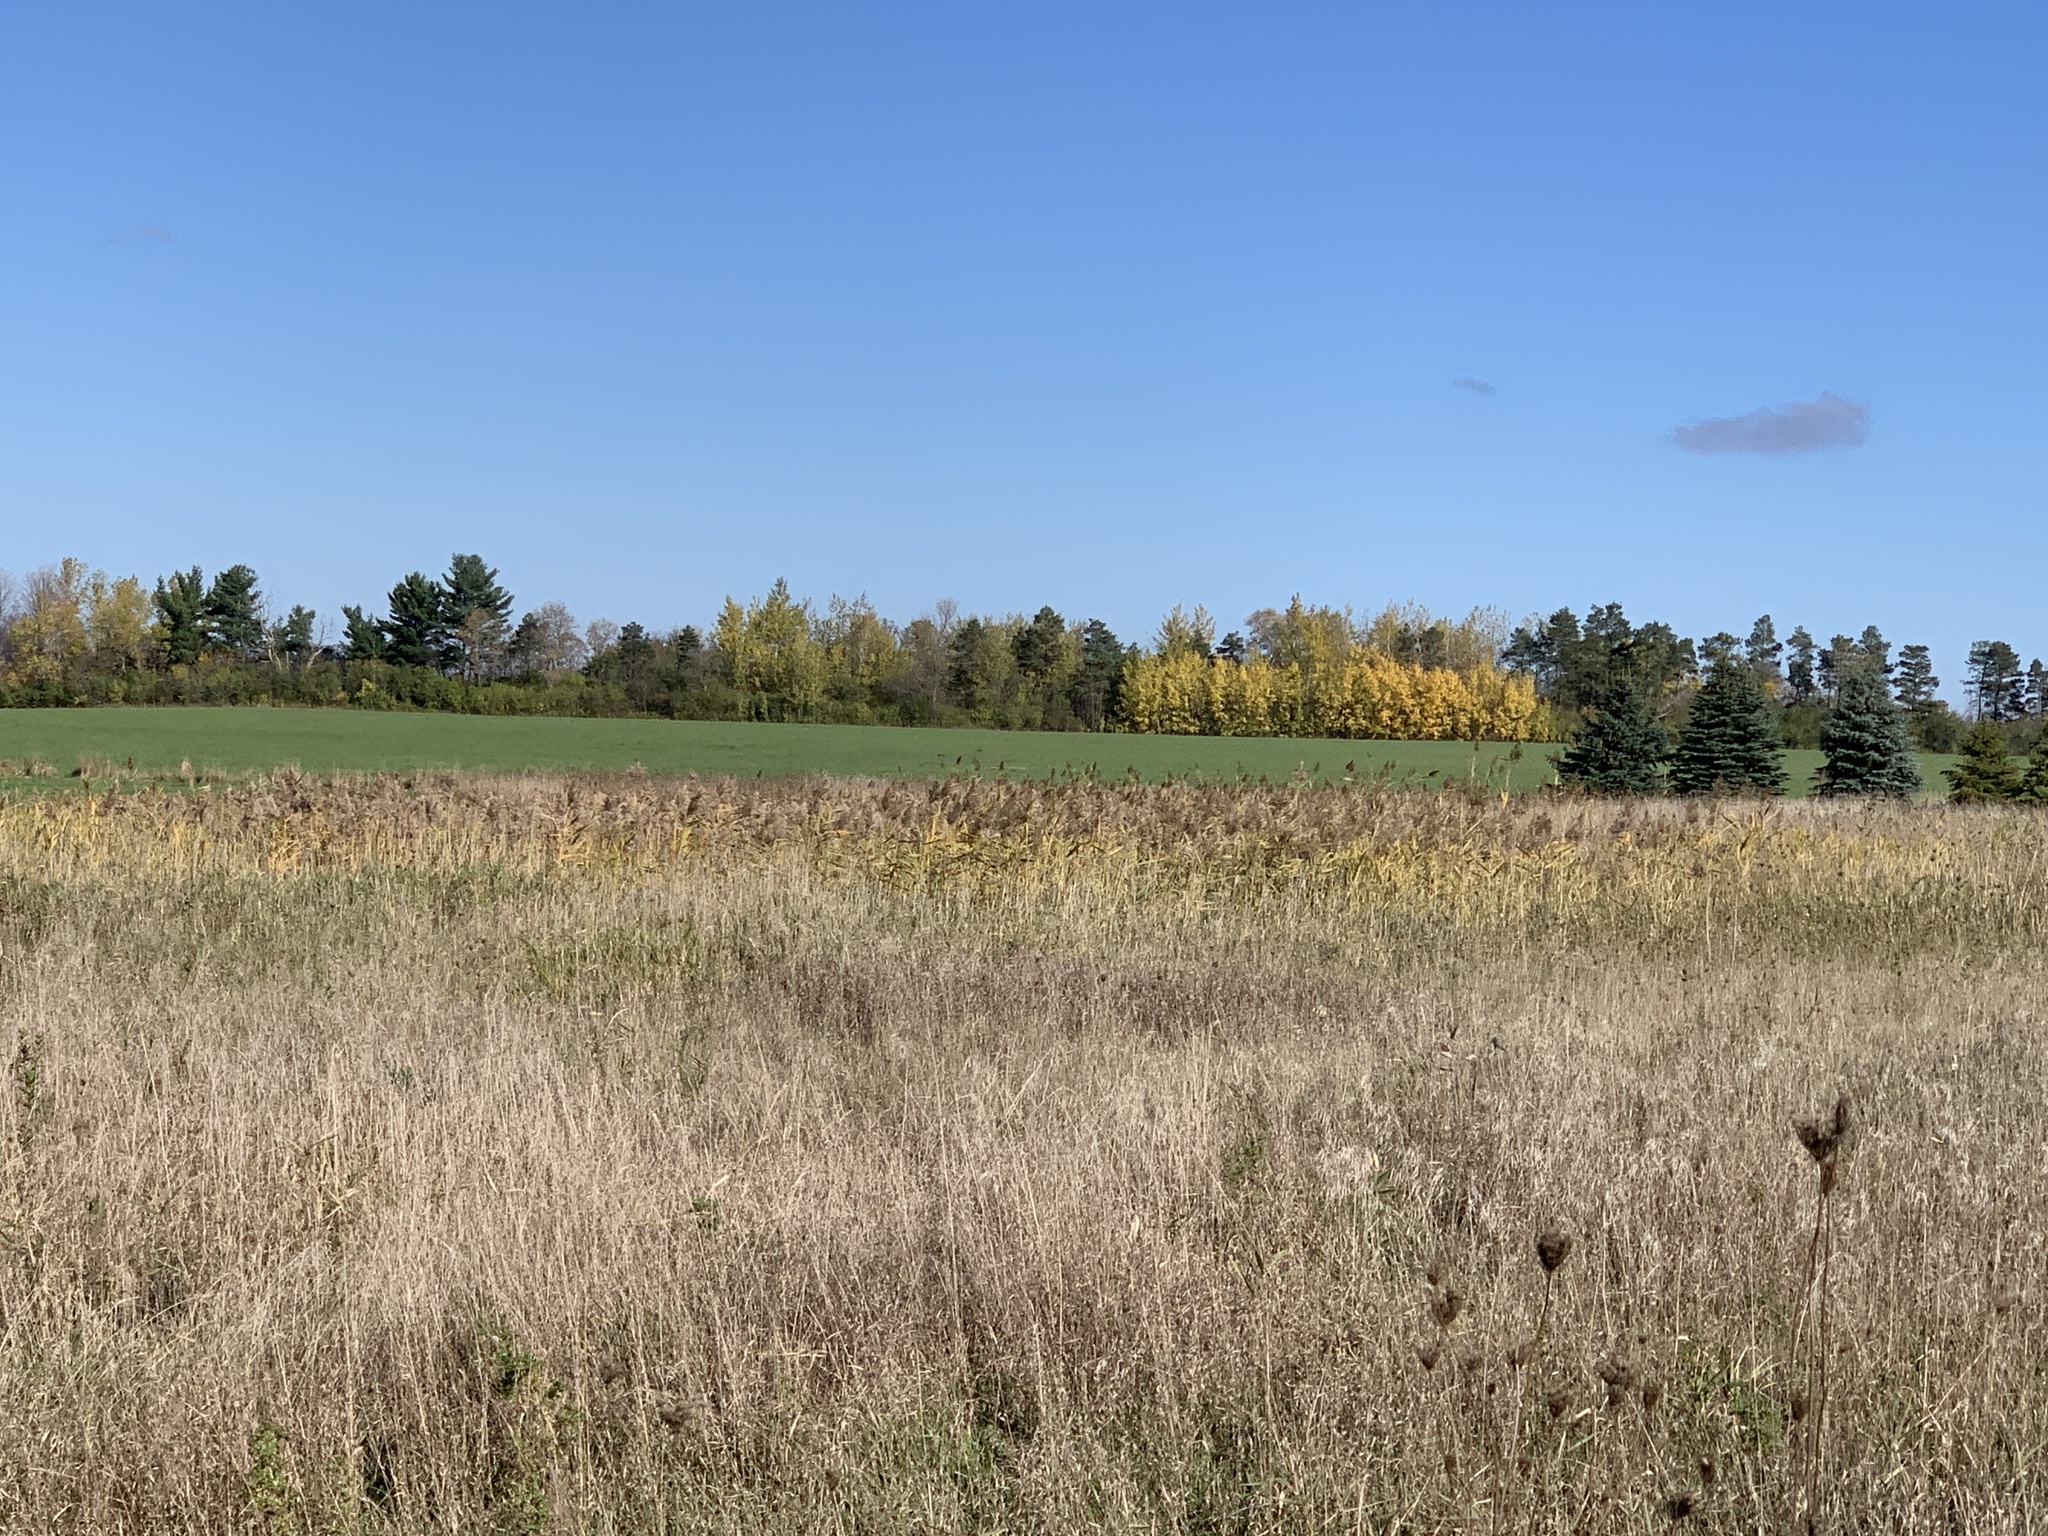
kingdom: Plantae
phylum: Tracheophyta
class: Liliopsida
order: Poales
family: Poaceae
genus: Phragmites
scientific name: Phragmites australis
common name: Common reed
